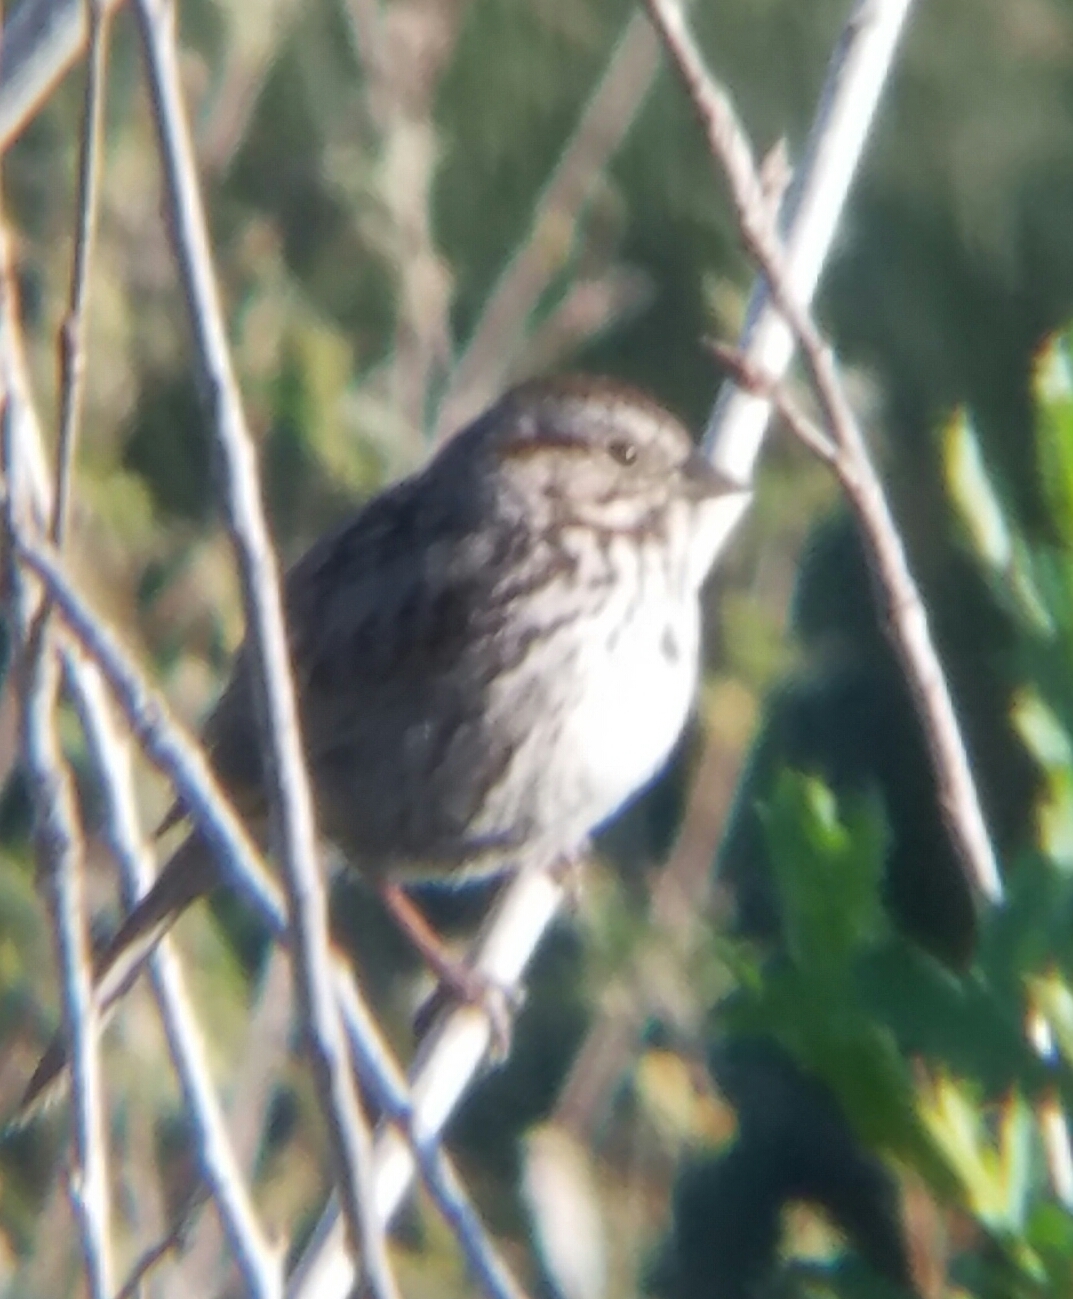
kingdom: Animalia
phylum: Chordata
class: Aves
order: Passeriformes
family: Passerellidae
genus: Melospiza
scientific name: Melospiza melodia
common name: Song sparrow
